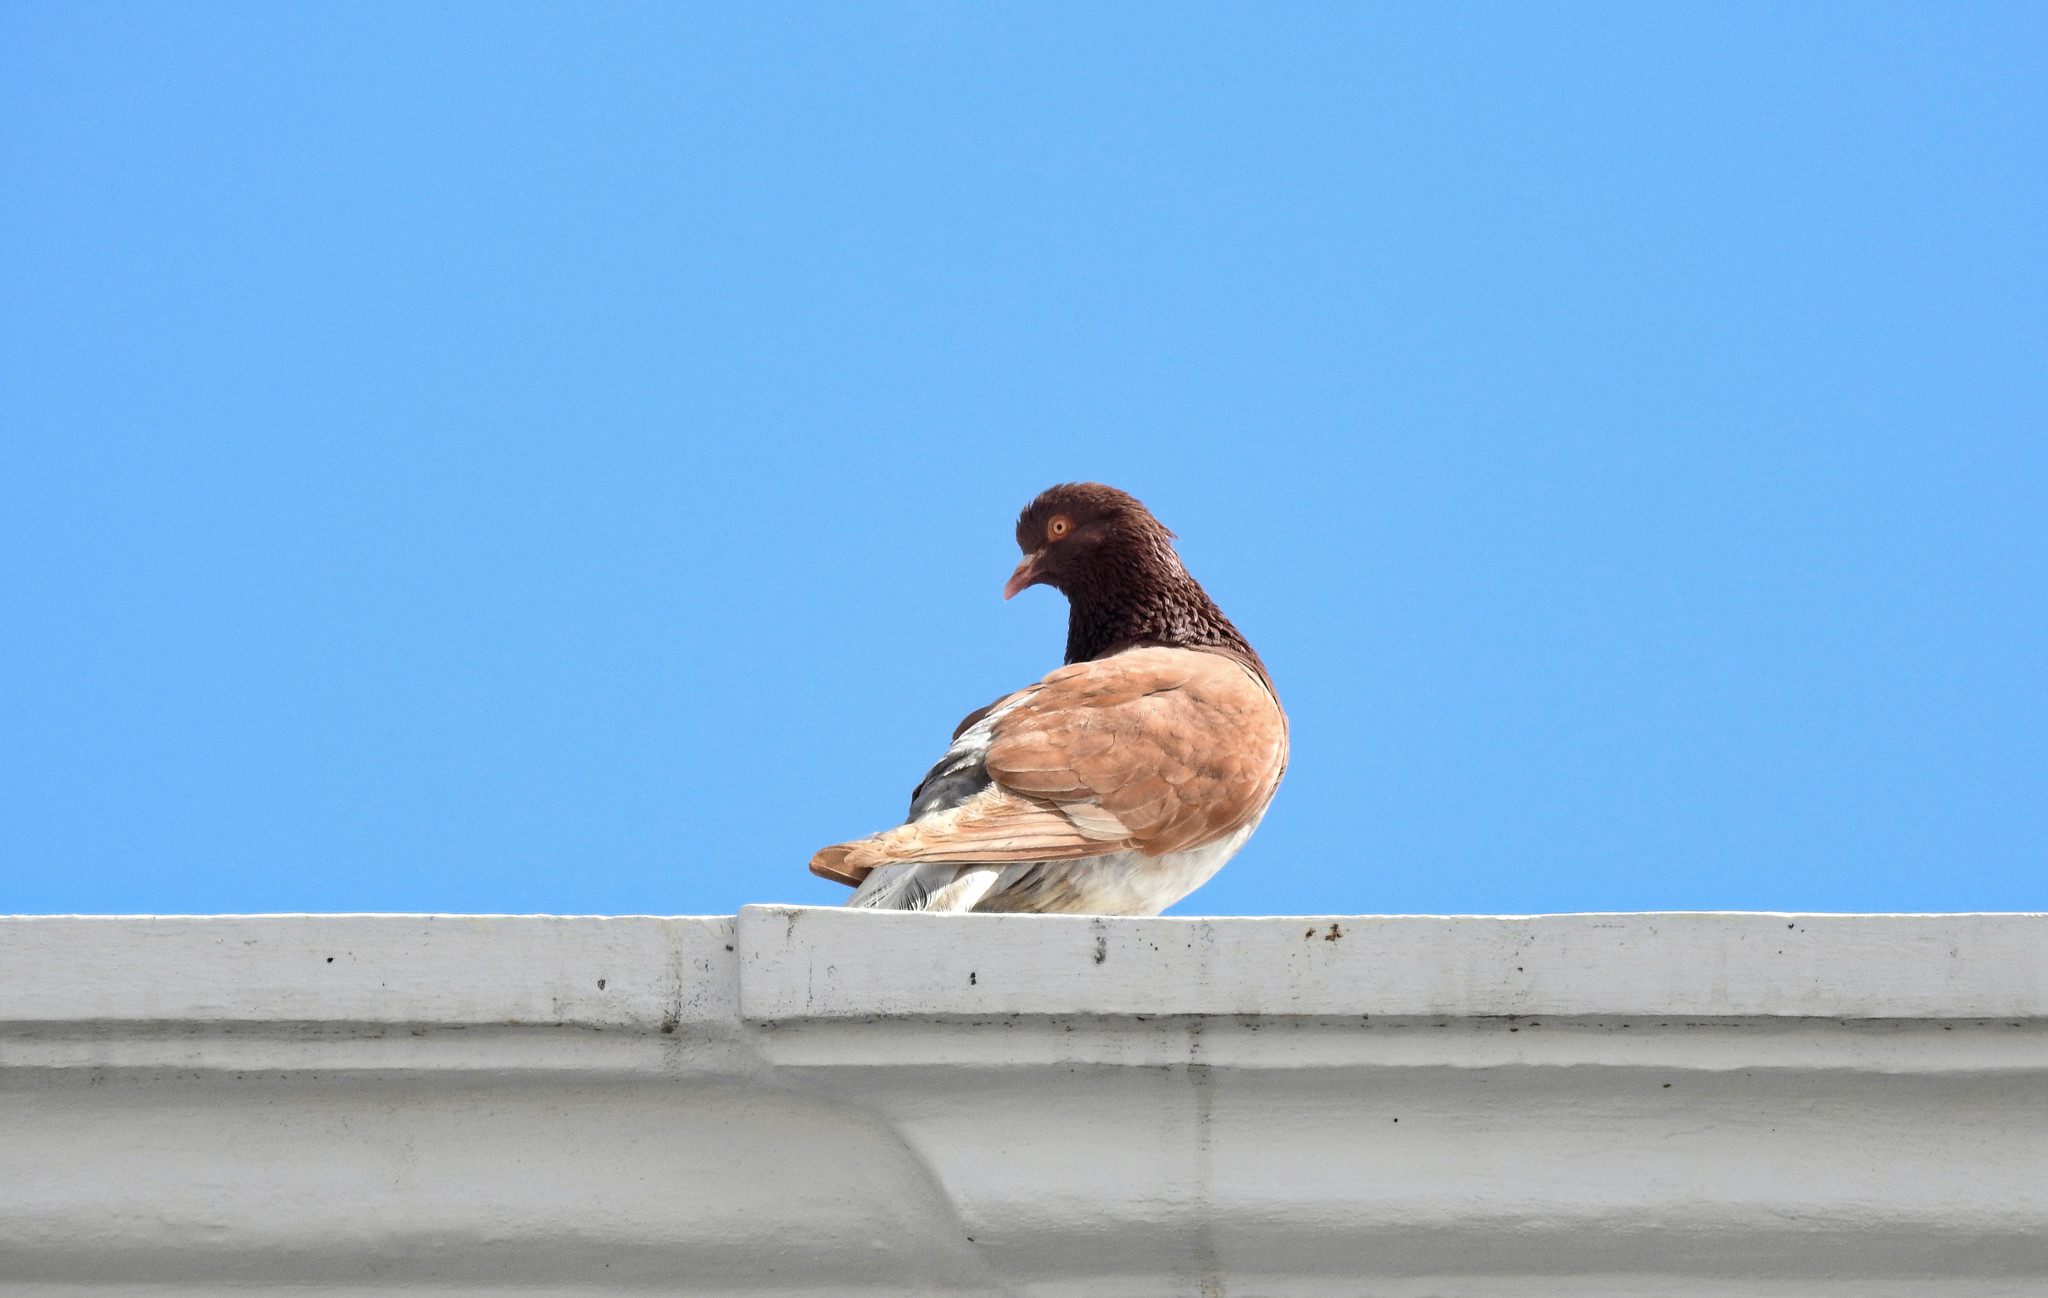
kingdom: Animalia
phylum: Chordata
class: Aves
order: Columbiformes
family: Columbidae
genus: Columba
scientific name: Columba livia
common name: Rock pigeon
